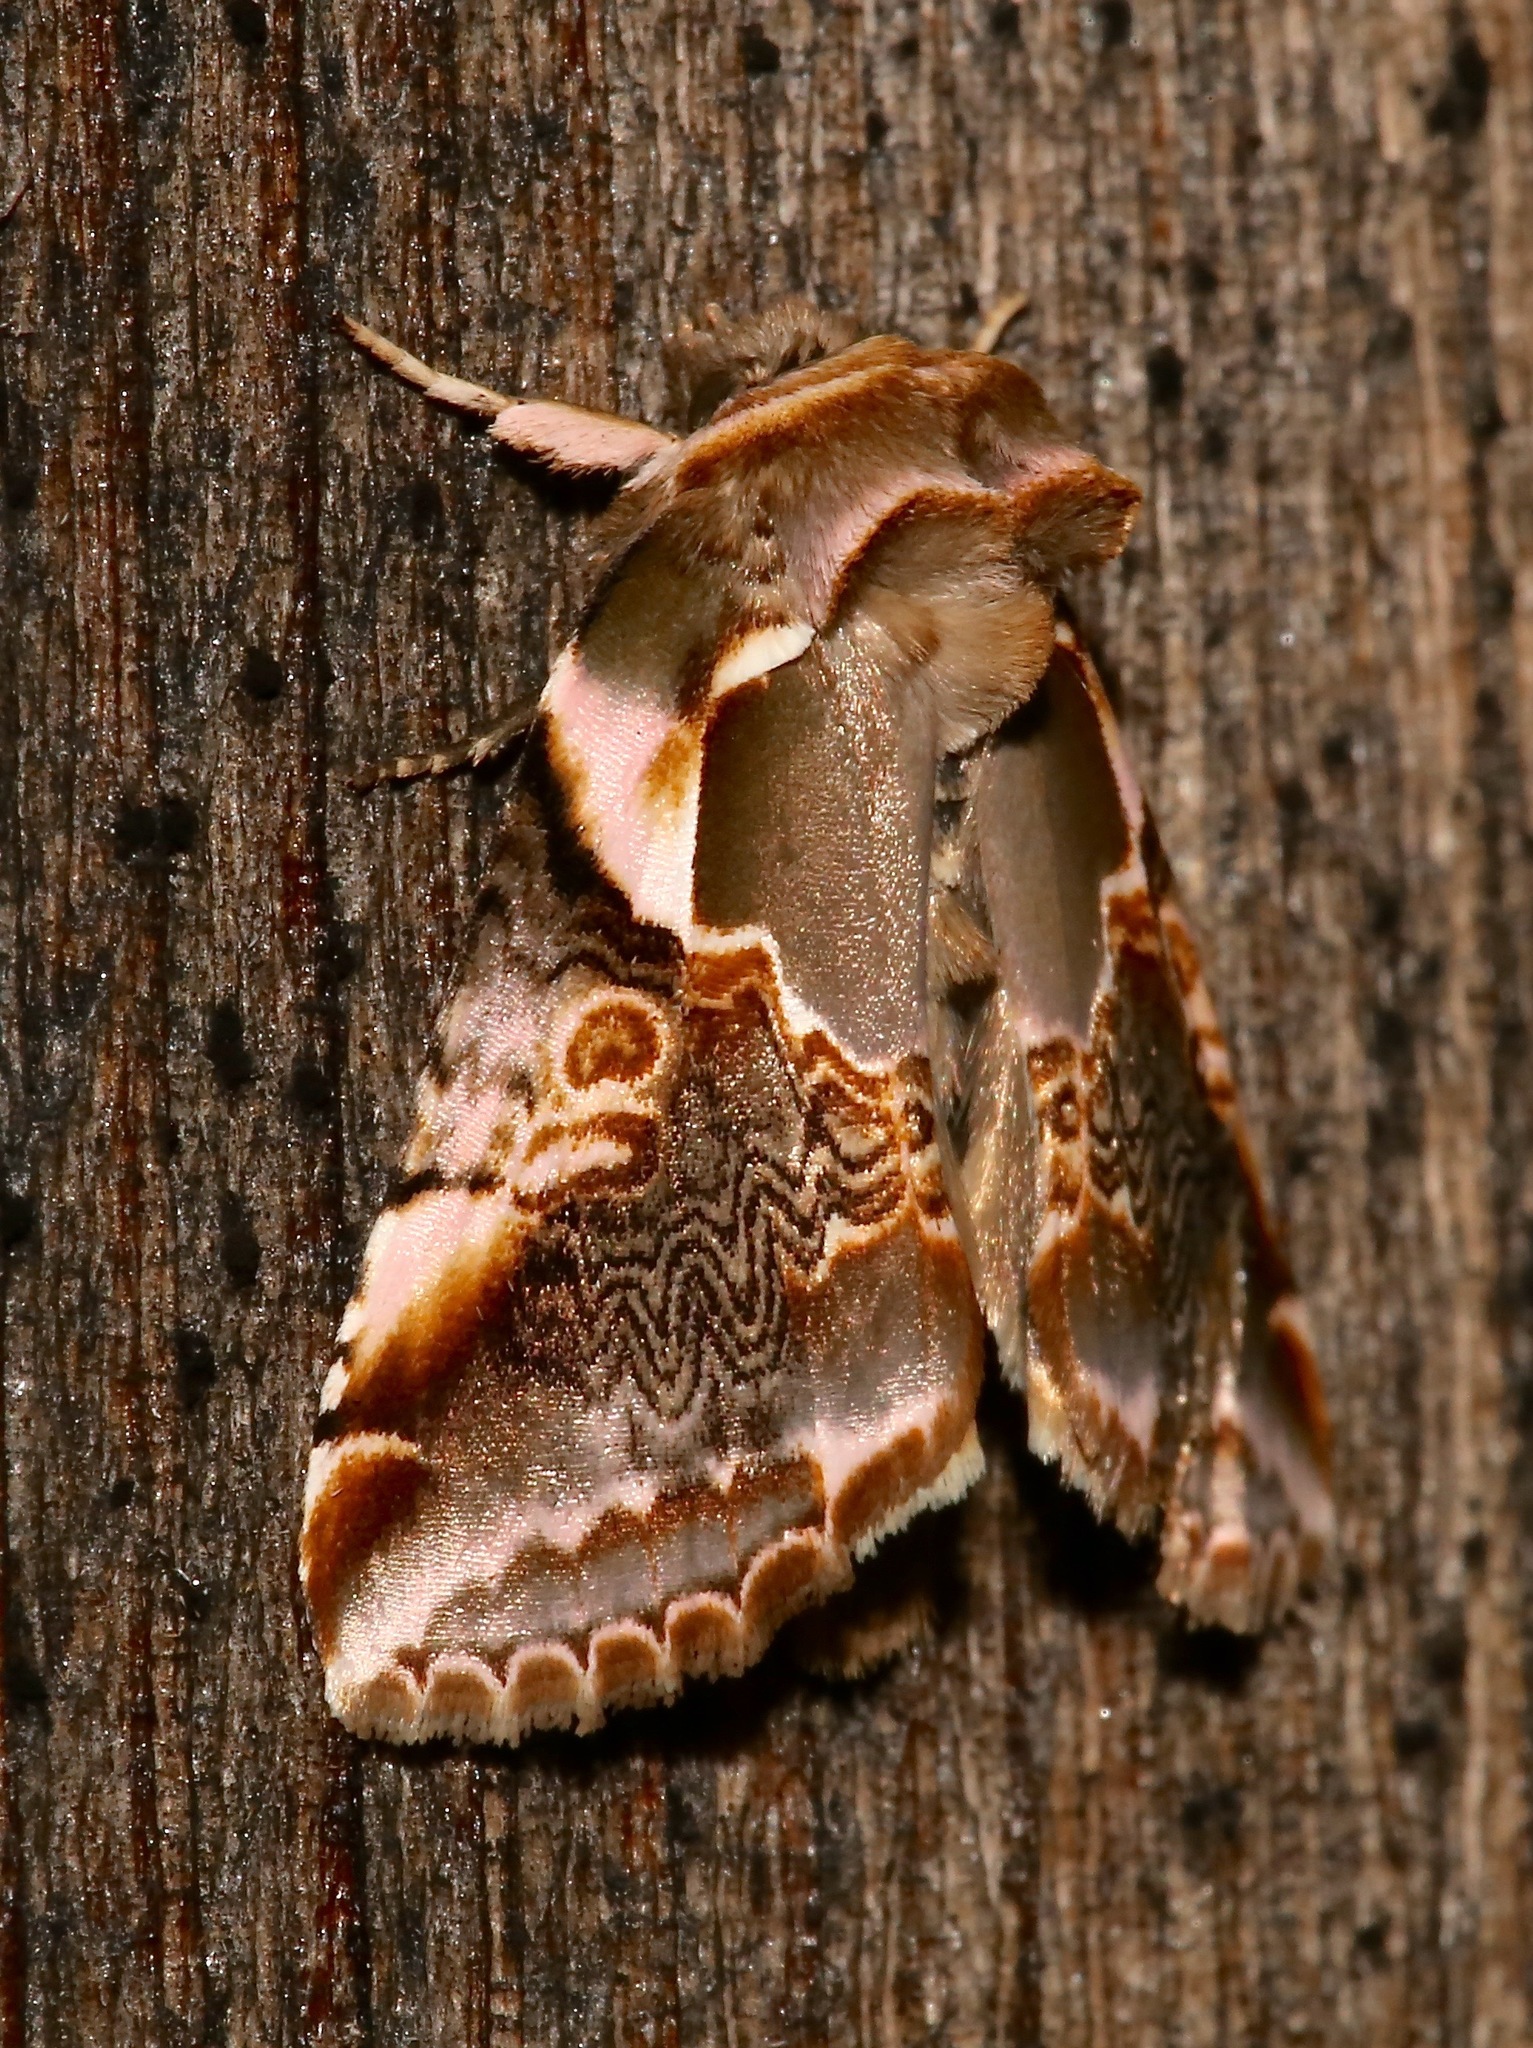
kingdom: Animalia
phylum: Arthropoda
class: Insecta
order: Lepidoptera
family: Drepanidae
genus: Habrosyne
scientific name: Habrosyne gloriosa
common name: Glorious habrosyne moth
